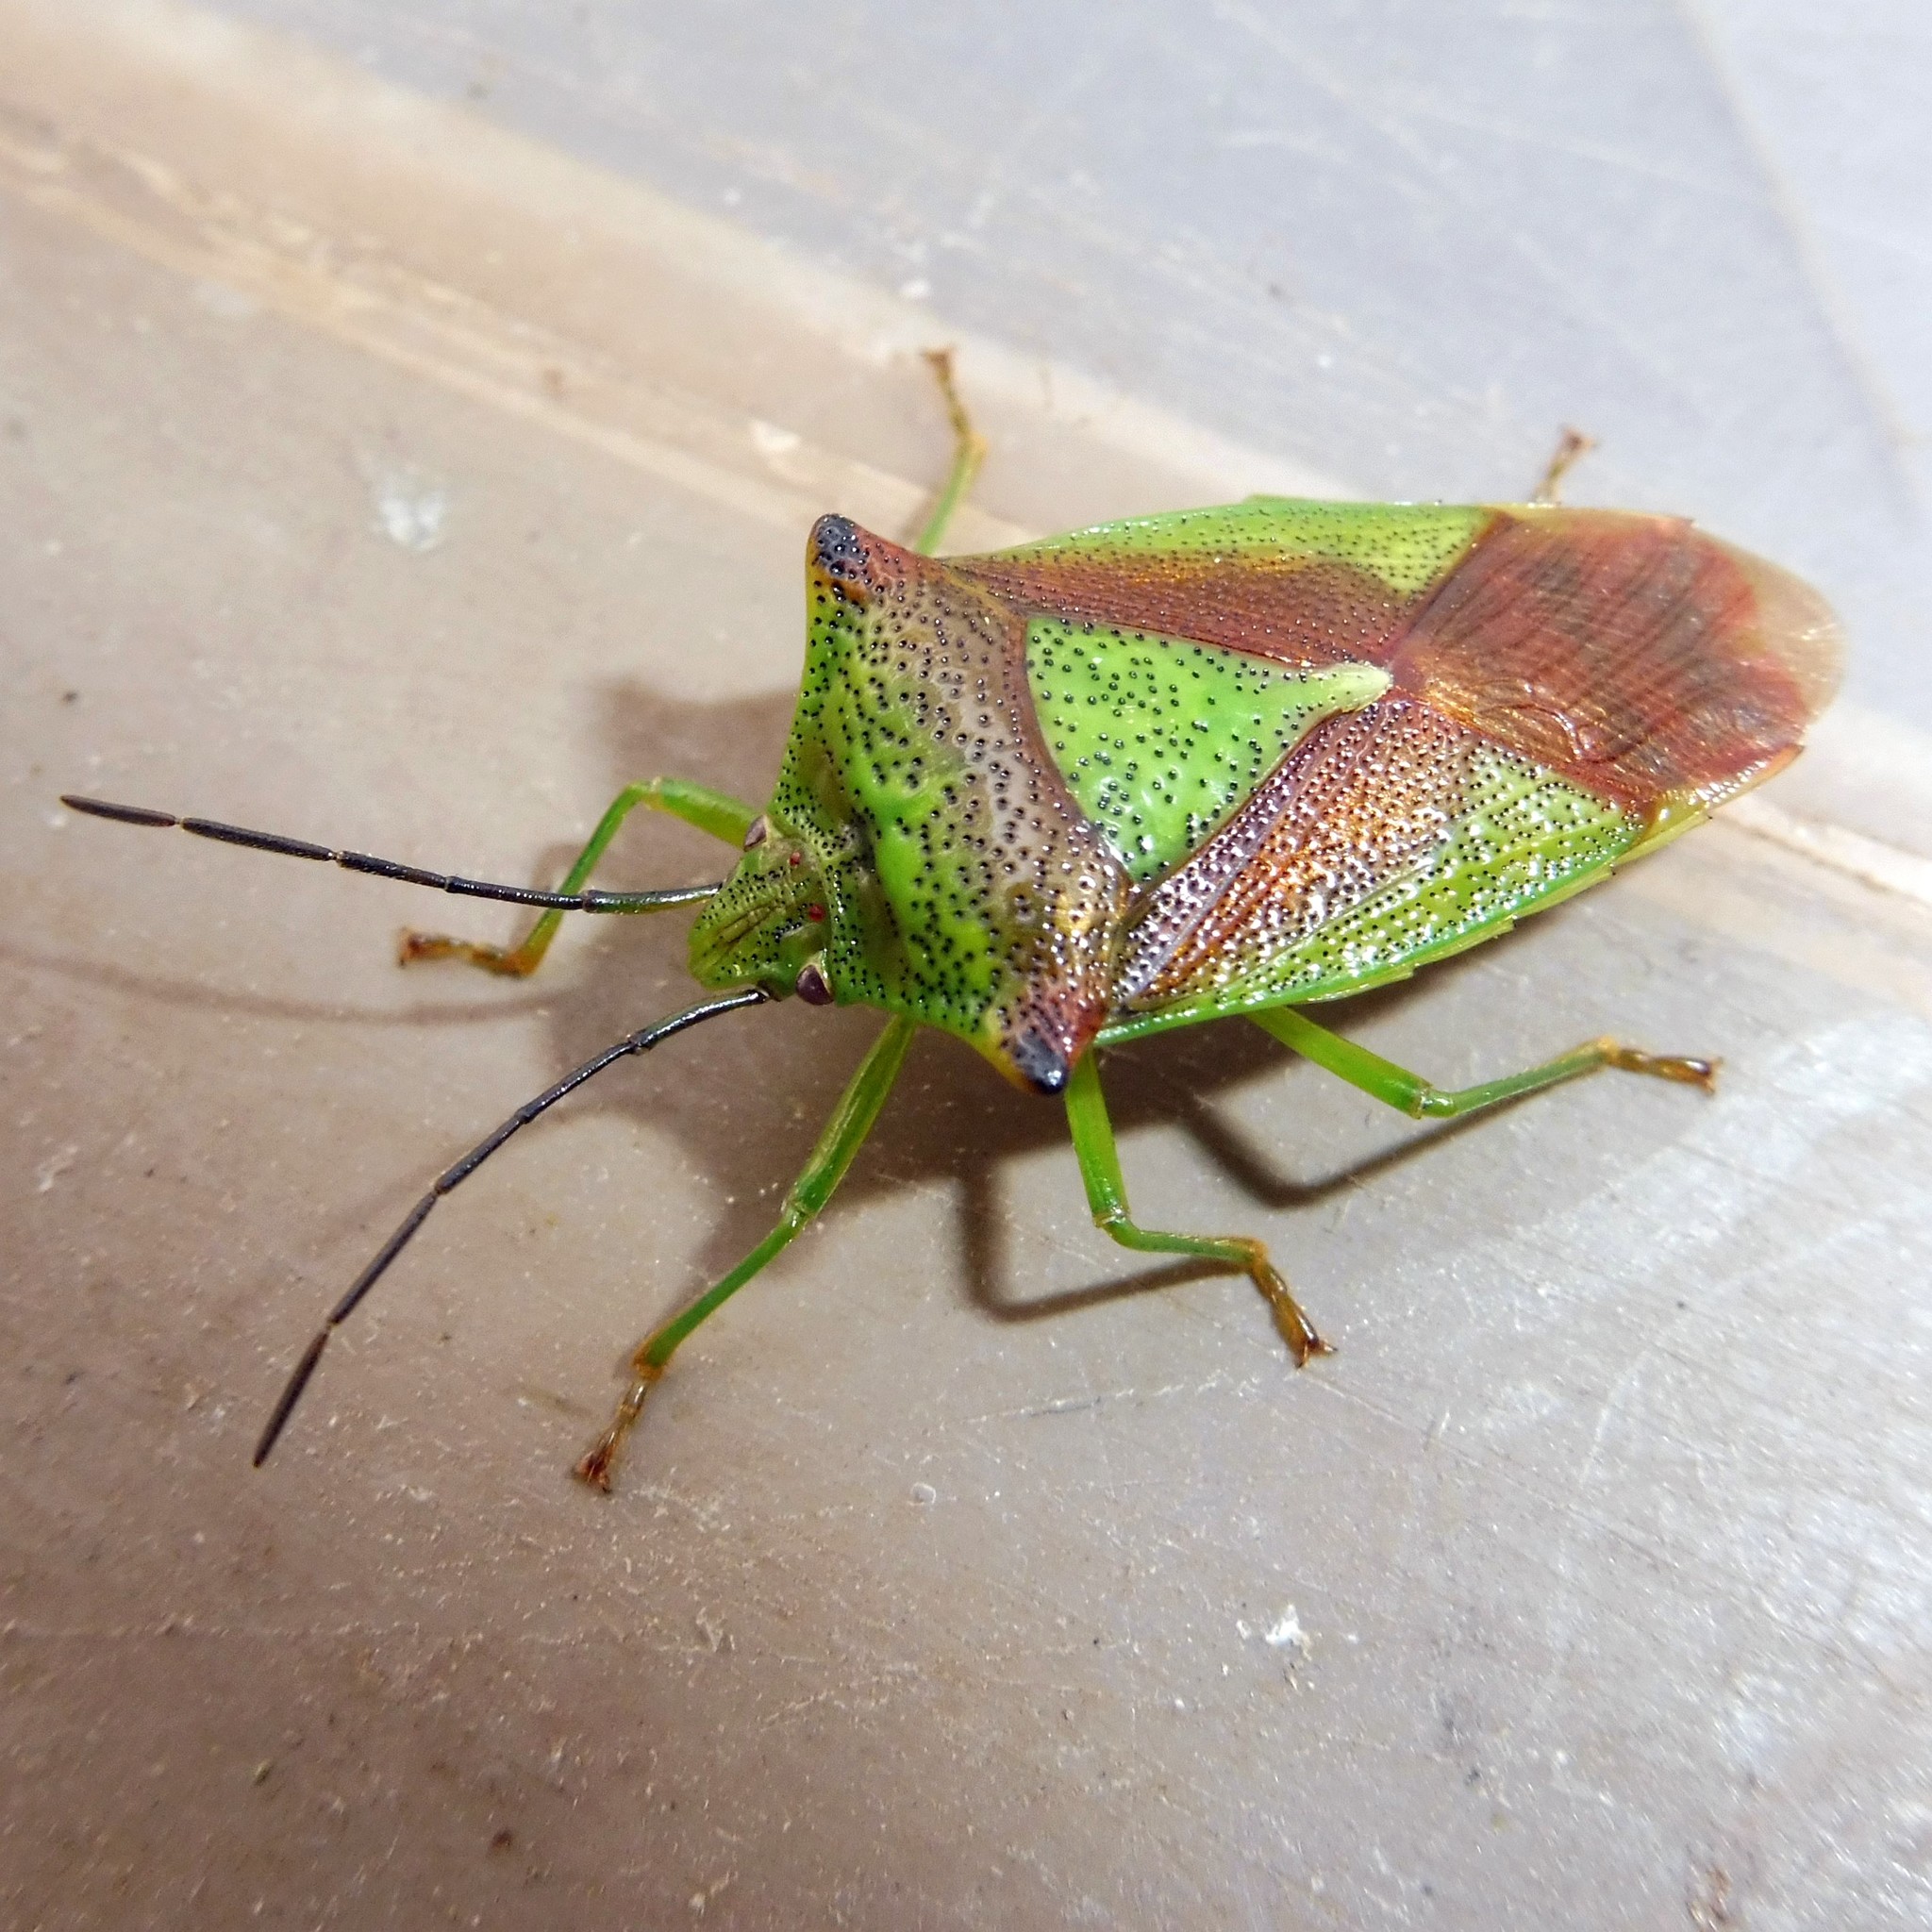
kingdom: Animalia
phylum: Arthropoda
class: Insecta
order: Hemiptera
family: Acanthosomatidae
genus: Acanthosoma
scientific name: Acanthosoma haemorrhoidale
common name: Hawthorn shieldbug
